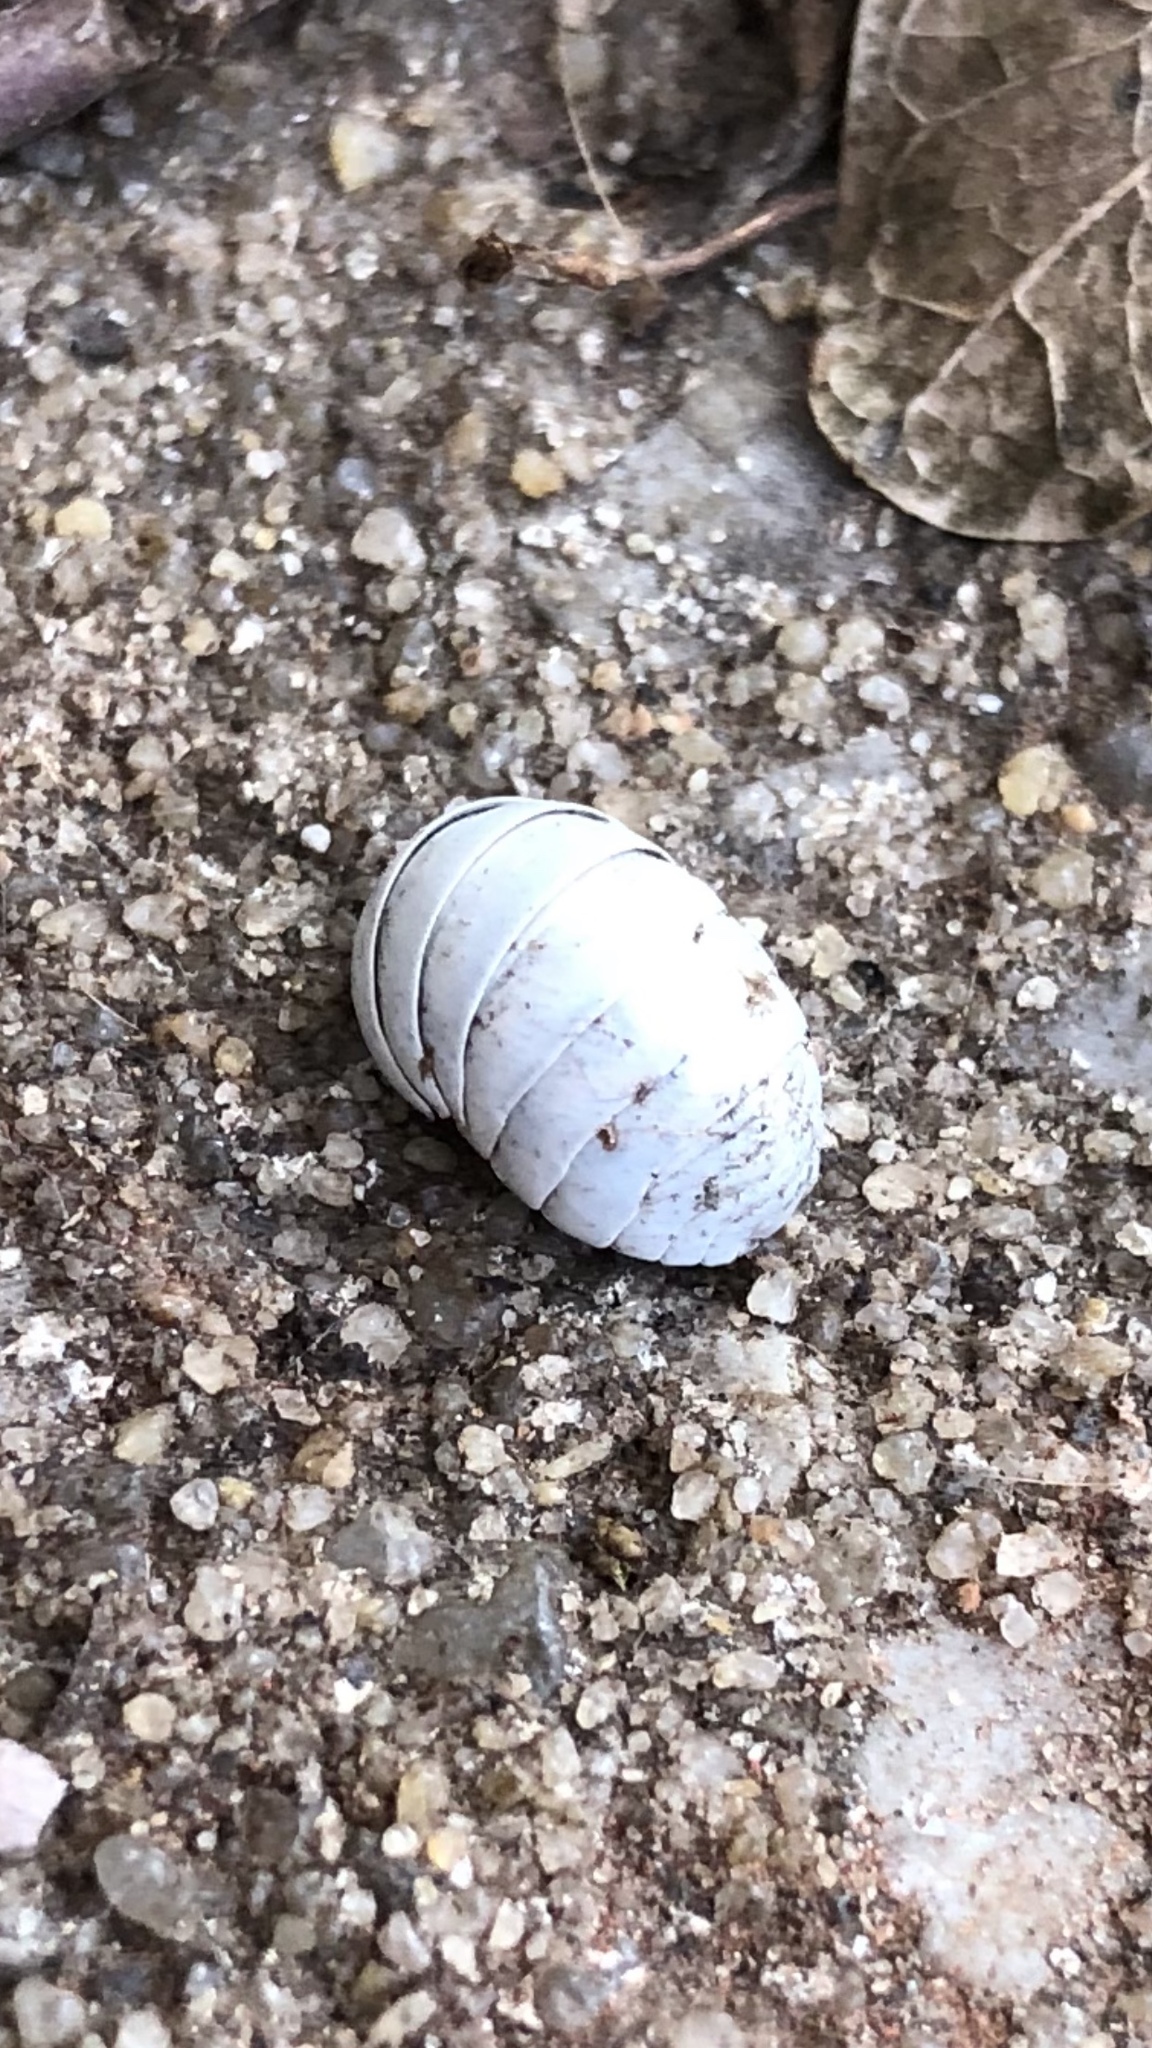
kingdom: Animalia
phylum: Arthropoda
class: Malacostraca
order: Isopoda
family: Armadillidiidae
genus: Armadillidium
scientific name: Armadillidium vulgare
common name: Common pill woodlouse
